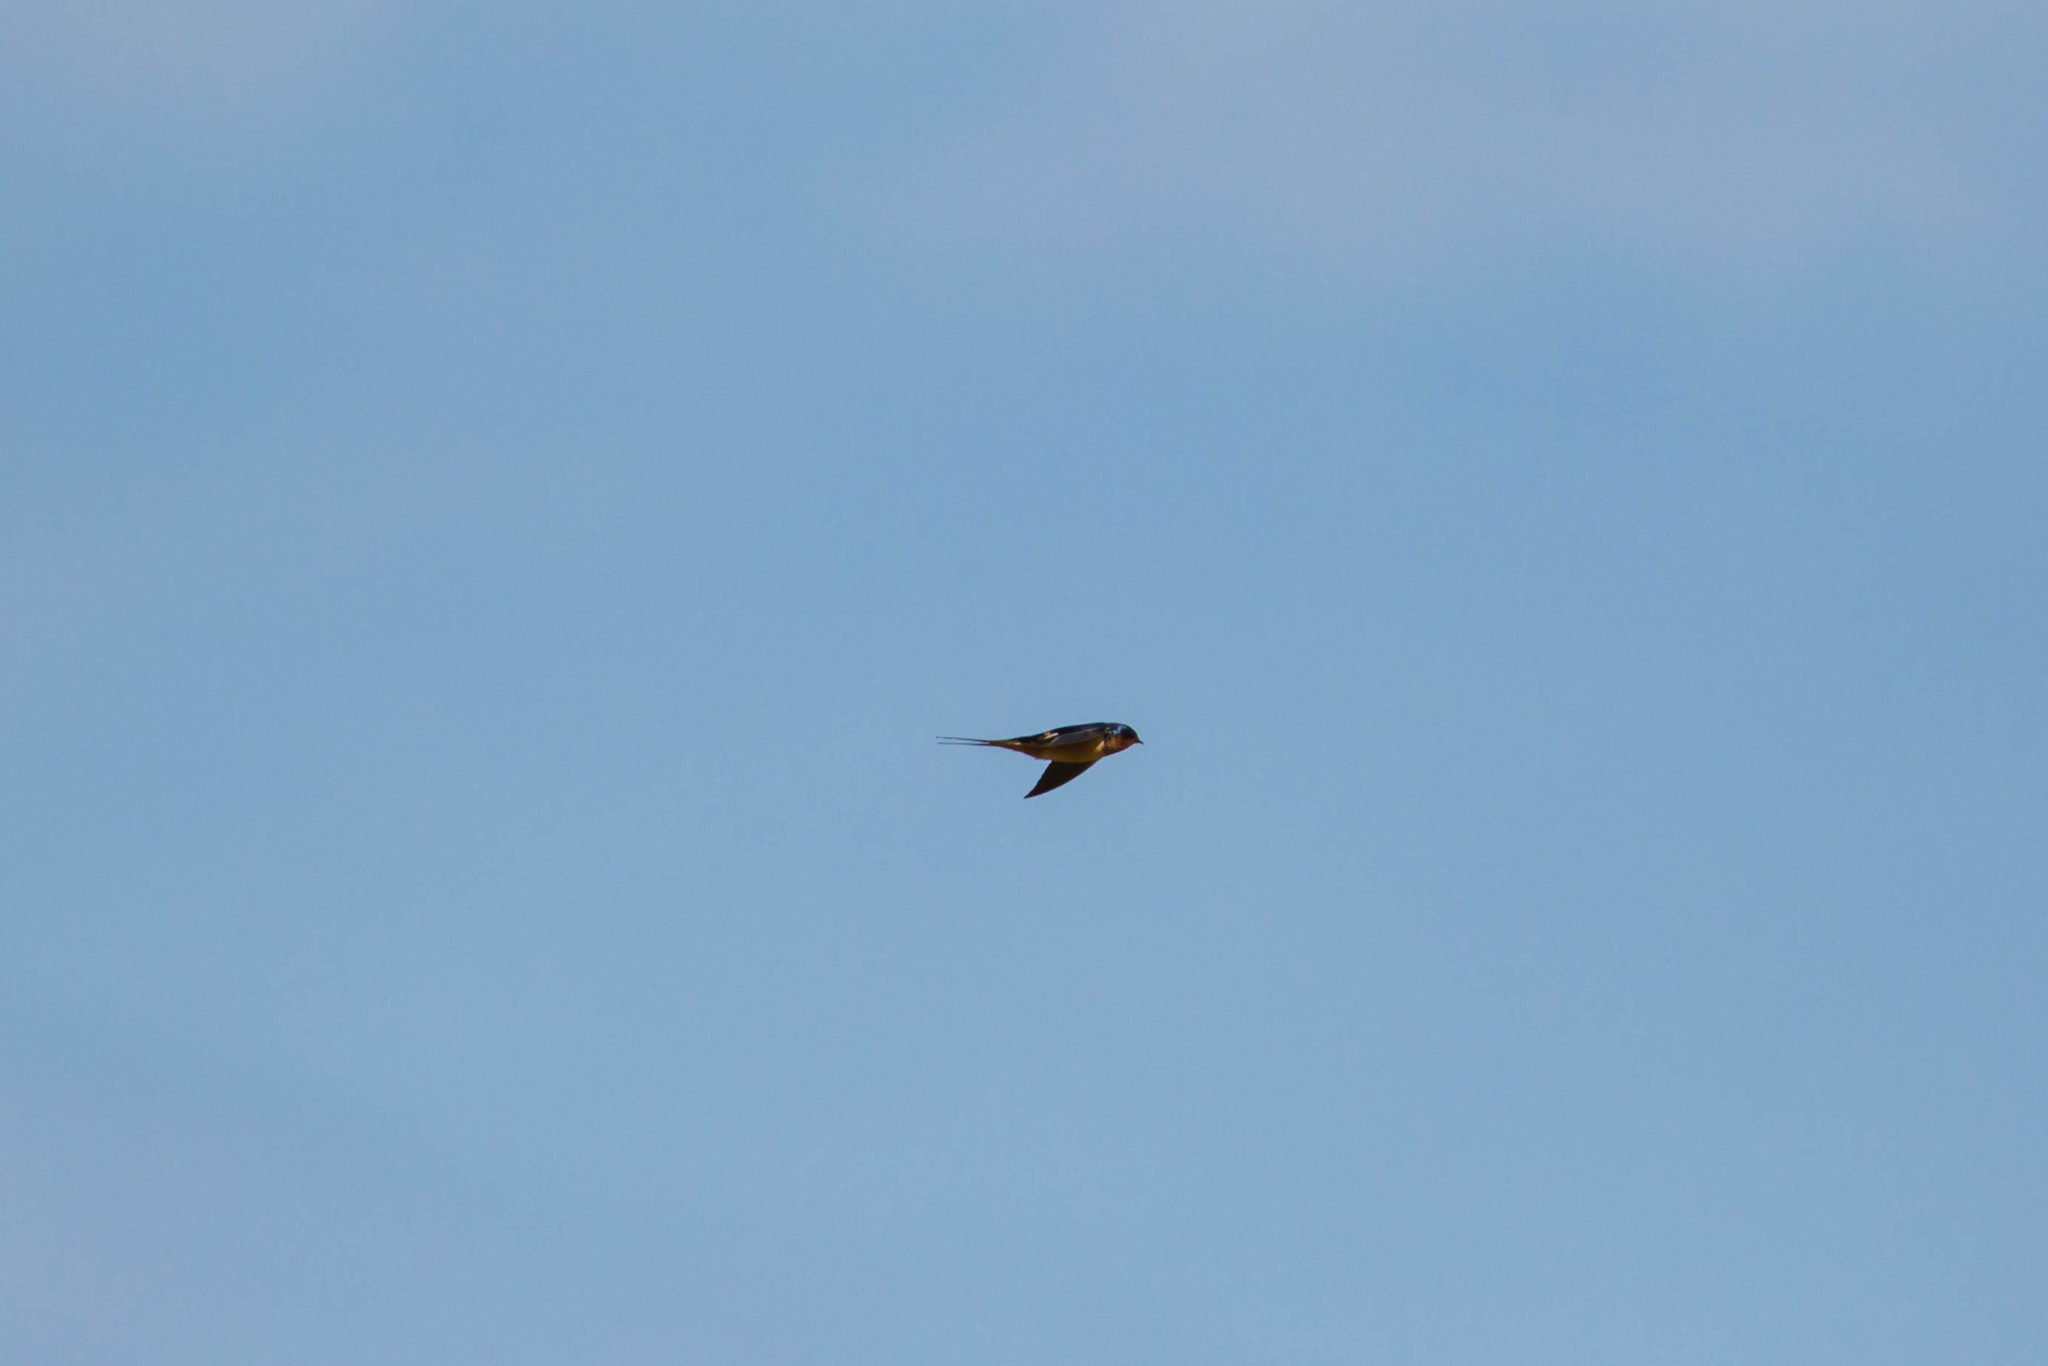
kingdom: Animalia
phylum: Chordata
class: Aves
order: Passeriformes
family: Hirundinidae
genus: Hirundo
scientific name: Hirundo rustica
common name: Barn swallow
